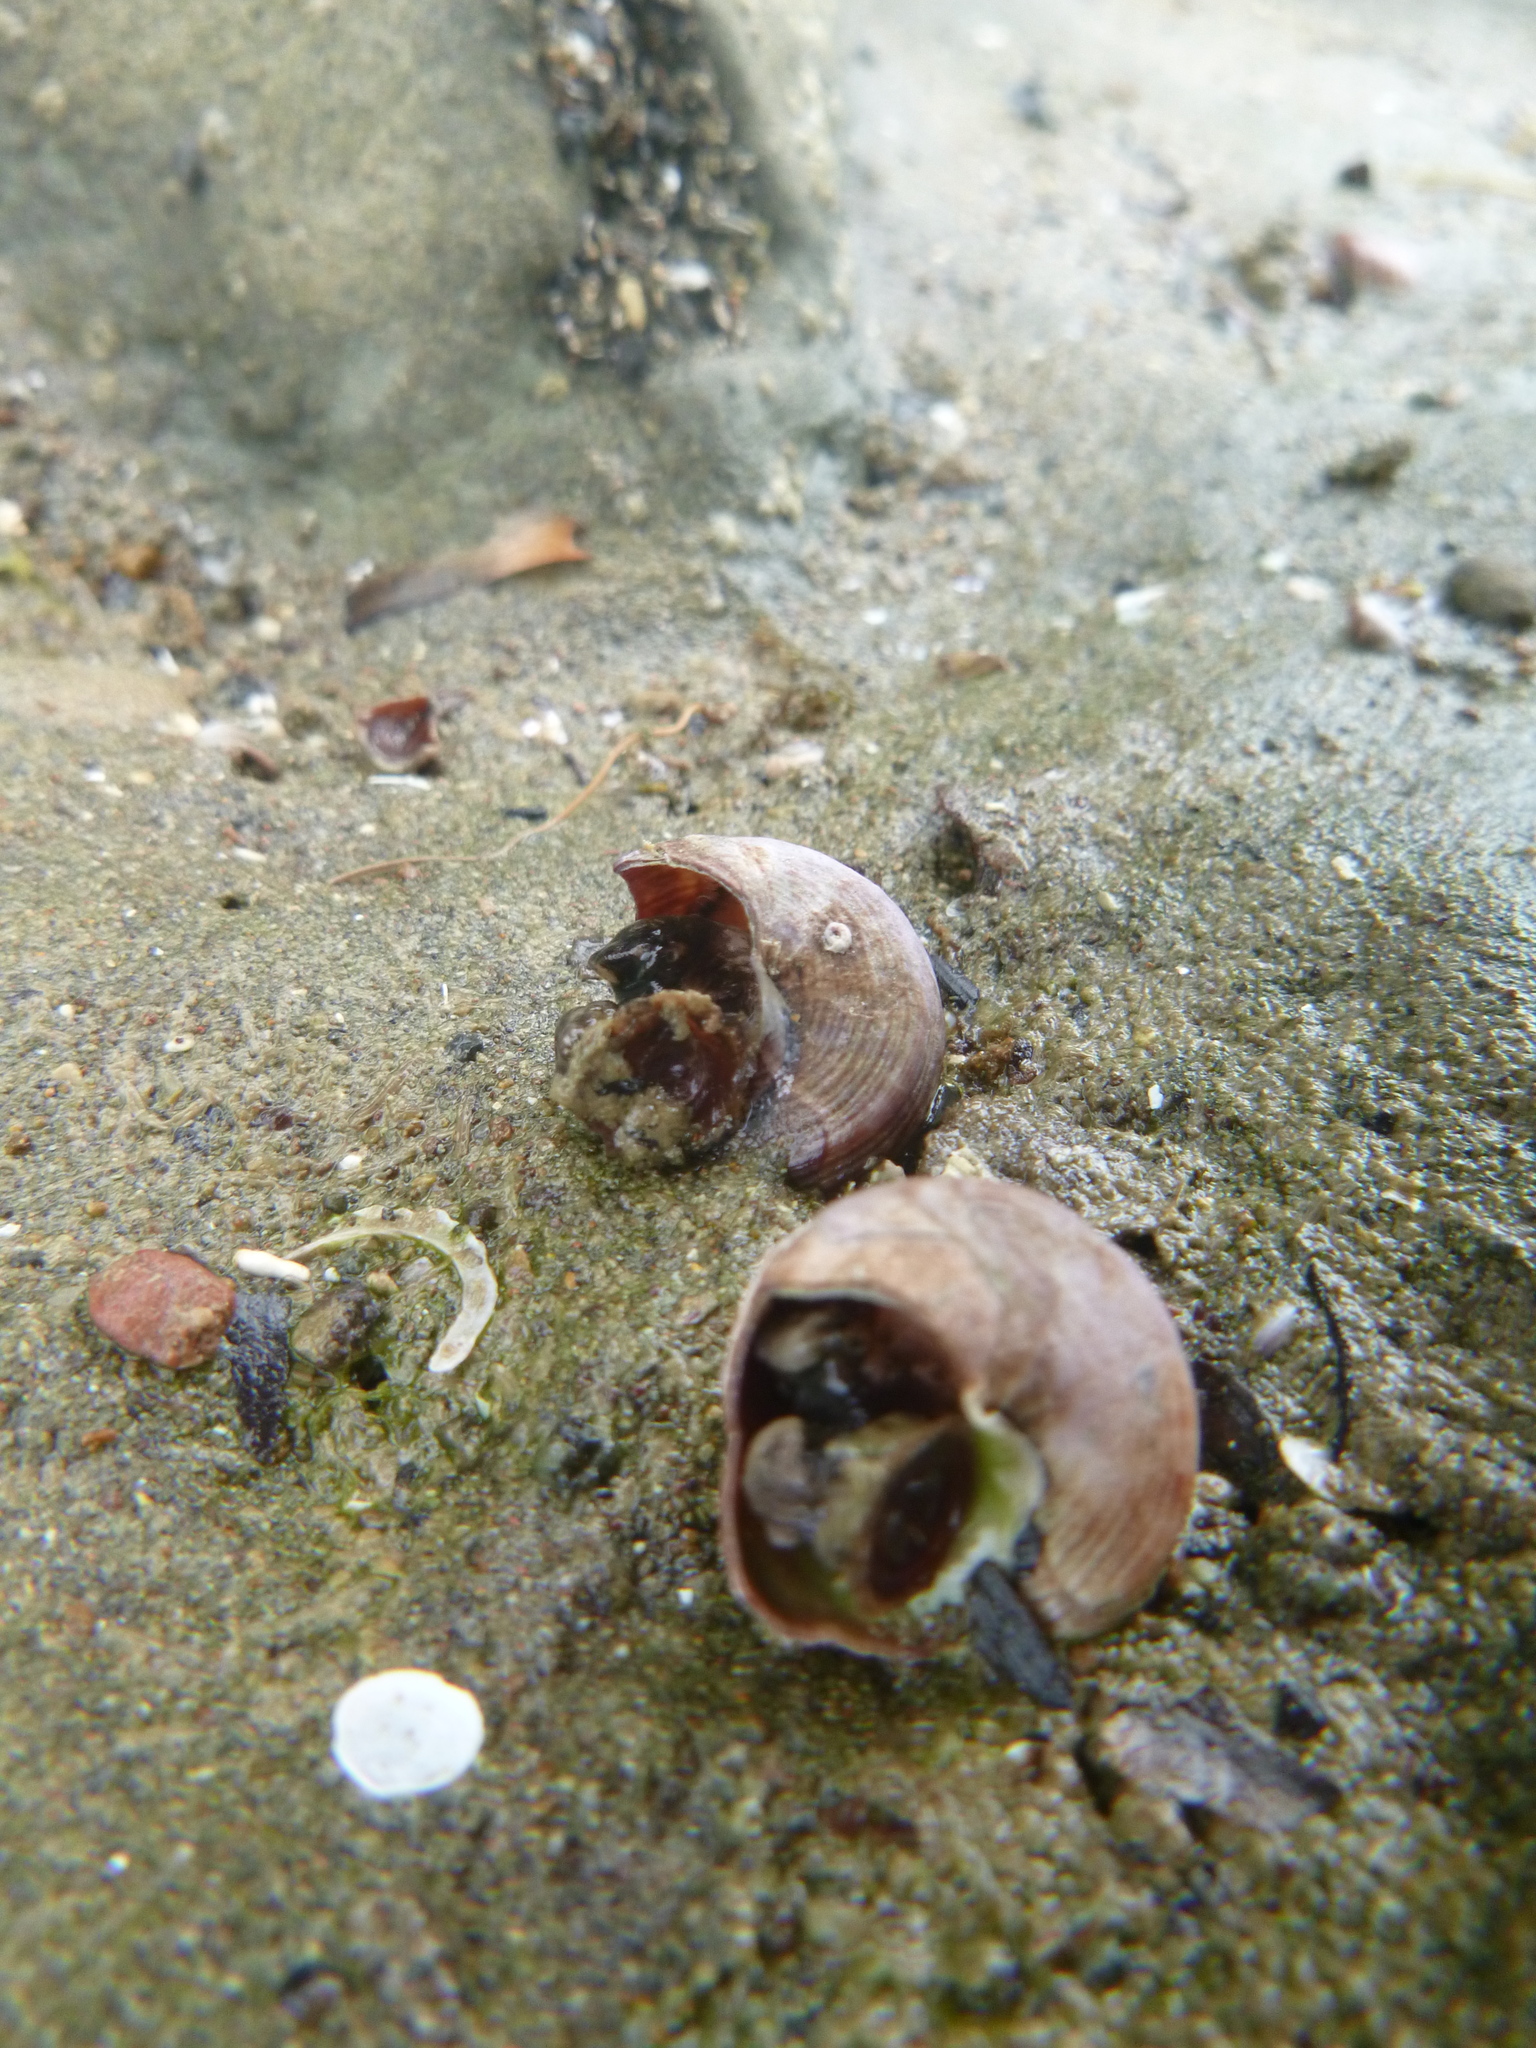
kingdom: Animalia
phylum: Mollusca
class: Gastropoda
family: Turritellidae
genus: Maoricolpus
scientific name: Maoricolpus roseus
